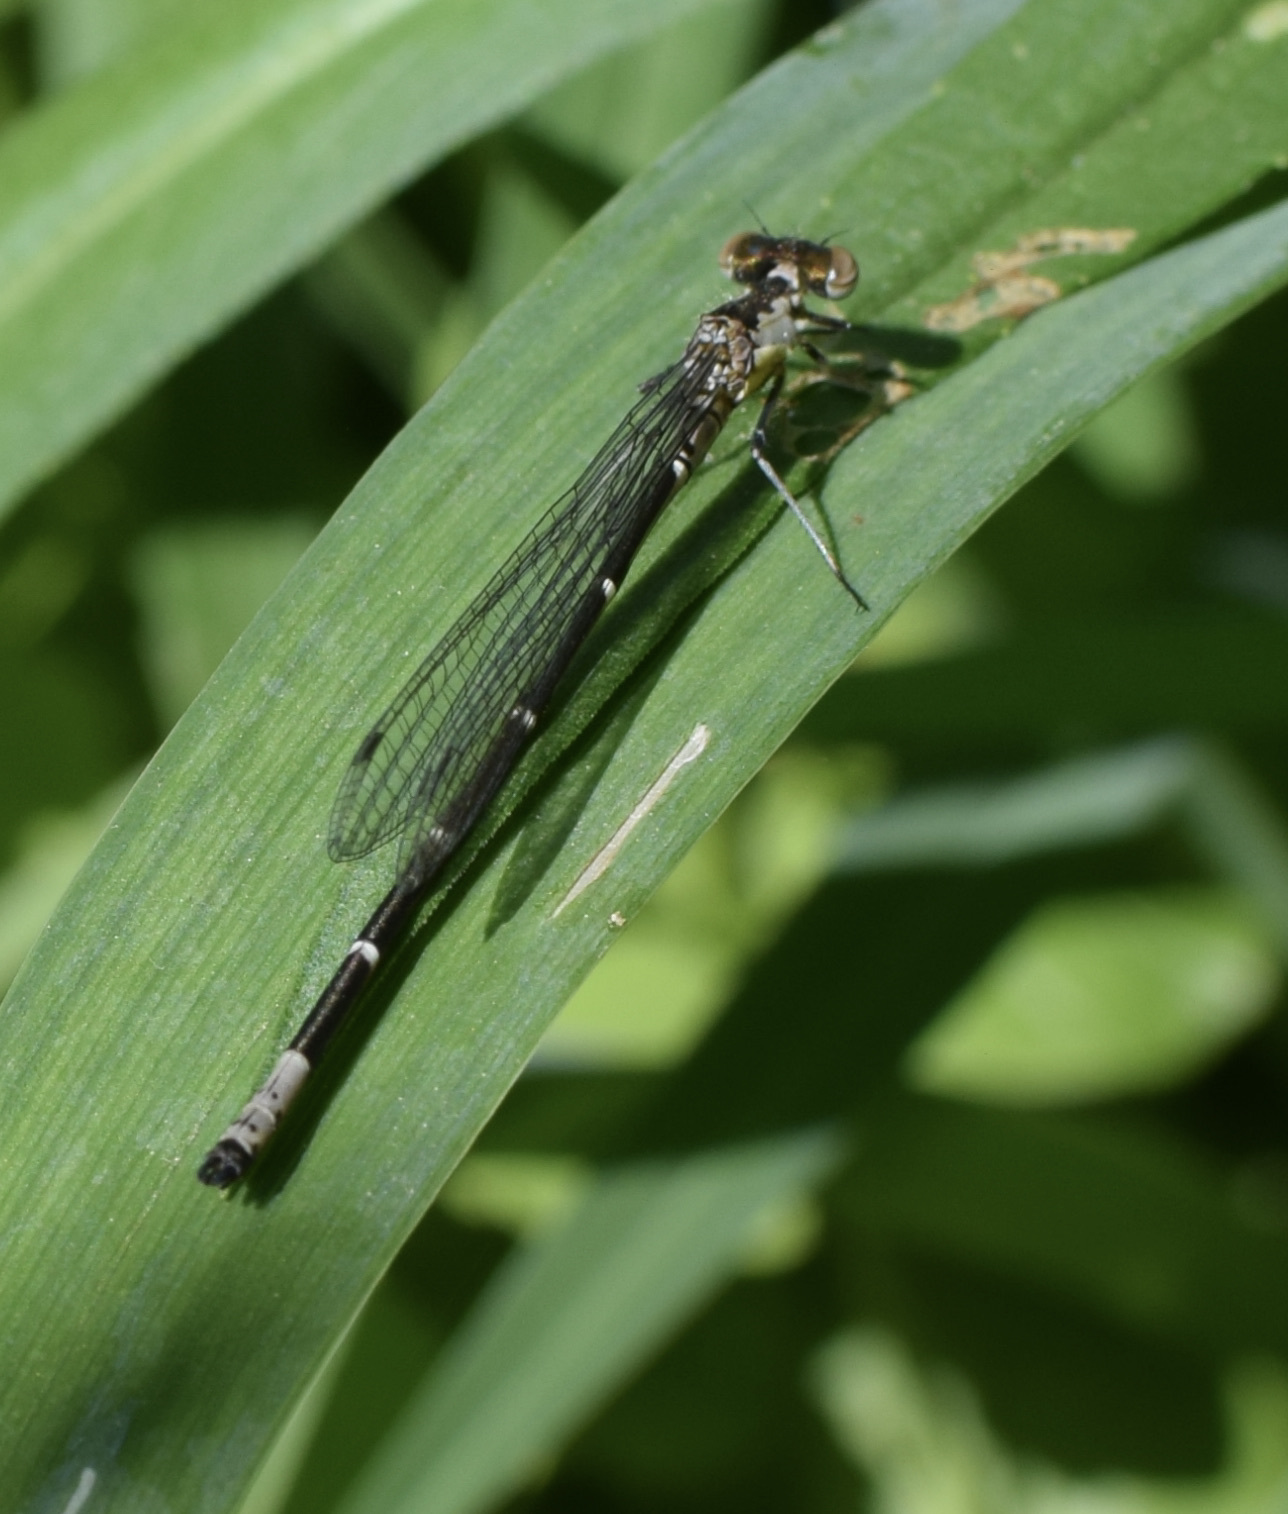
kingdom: Animalia
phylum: Arthropoda
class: Insecta
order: Odonata
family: Coenagrionidae
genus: Chromagrion
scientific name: Chromagrion conditum
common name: Aurora damsel
